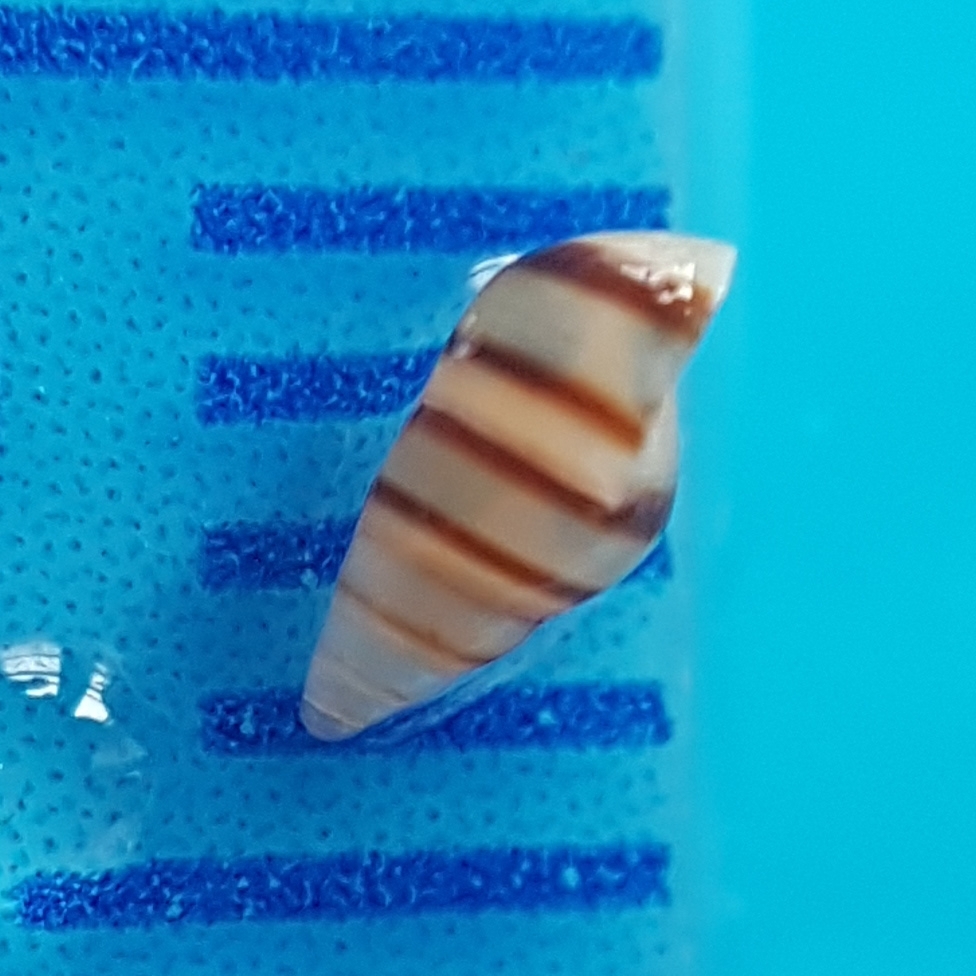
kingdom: Animalia
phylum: Mollusca
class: Gastropoda
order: Littorinimorpha
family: Rissoidae
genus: Cingula
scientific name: Cingula trifasciata
